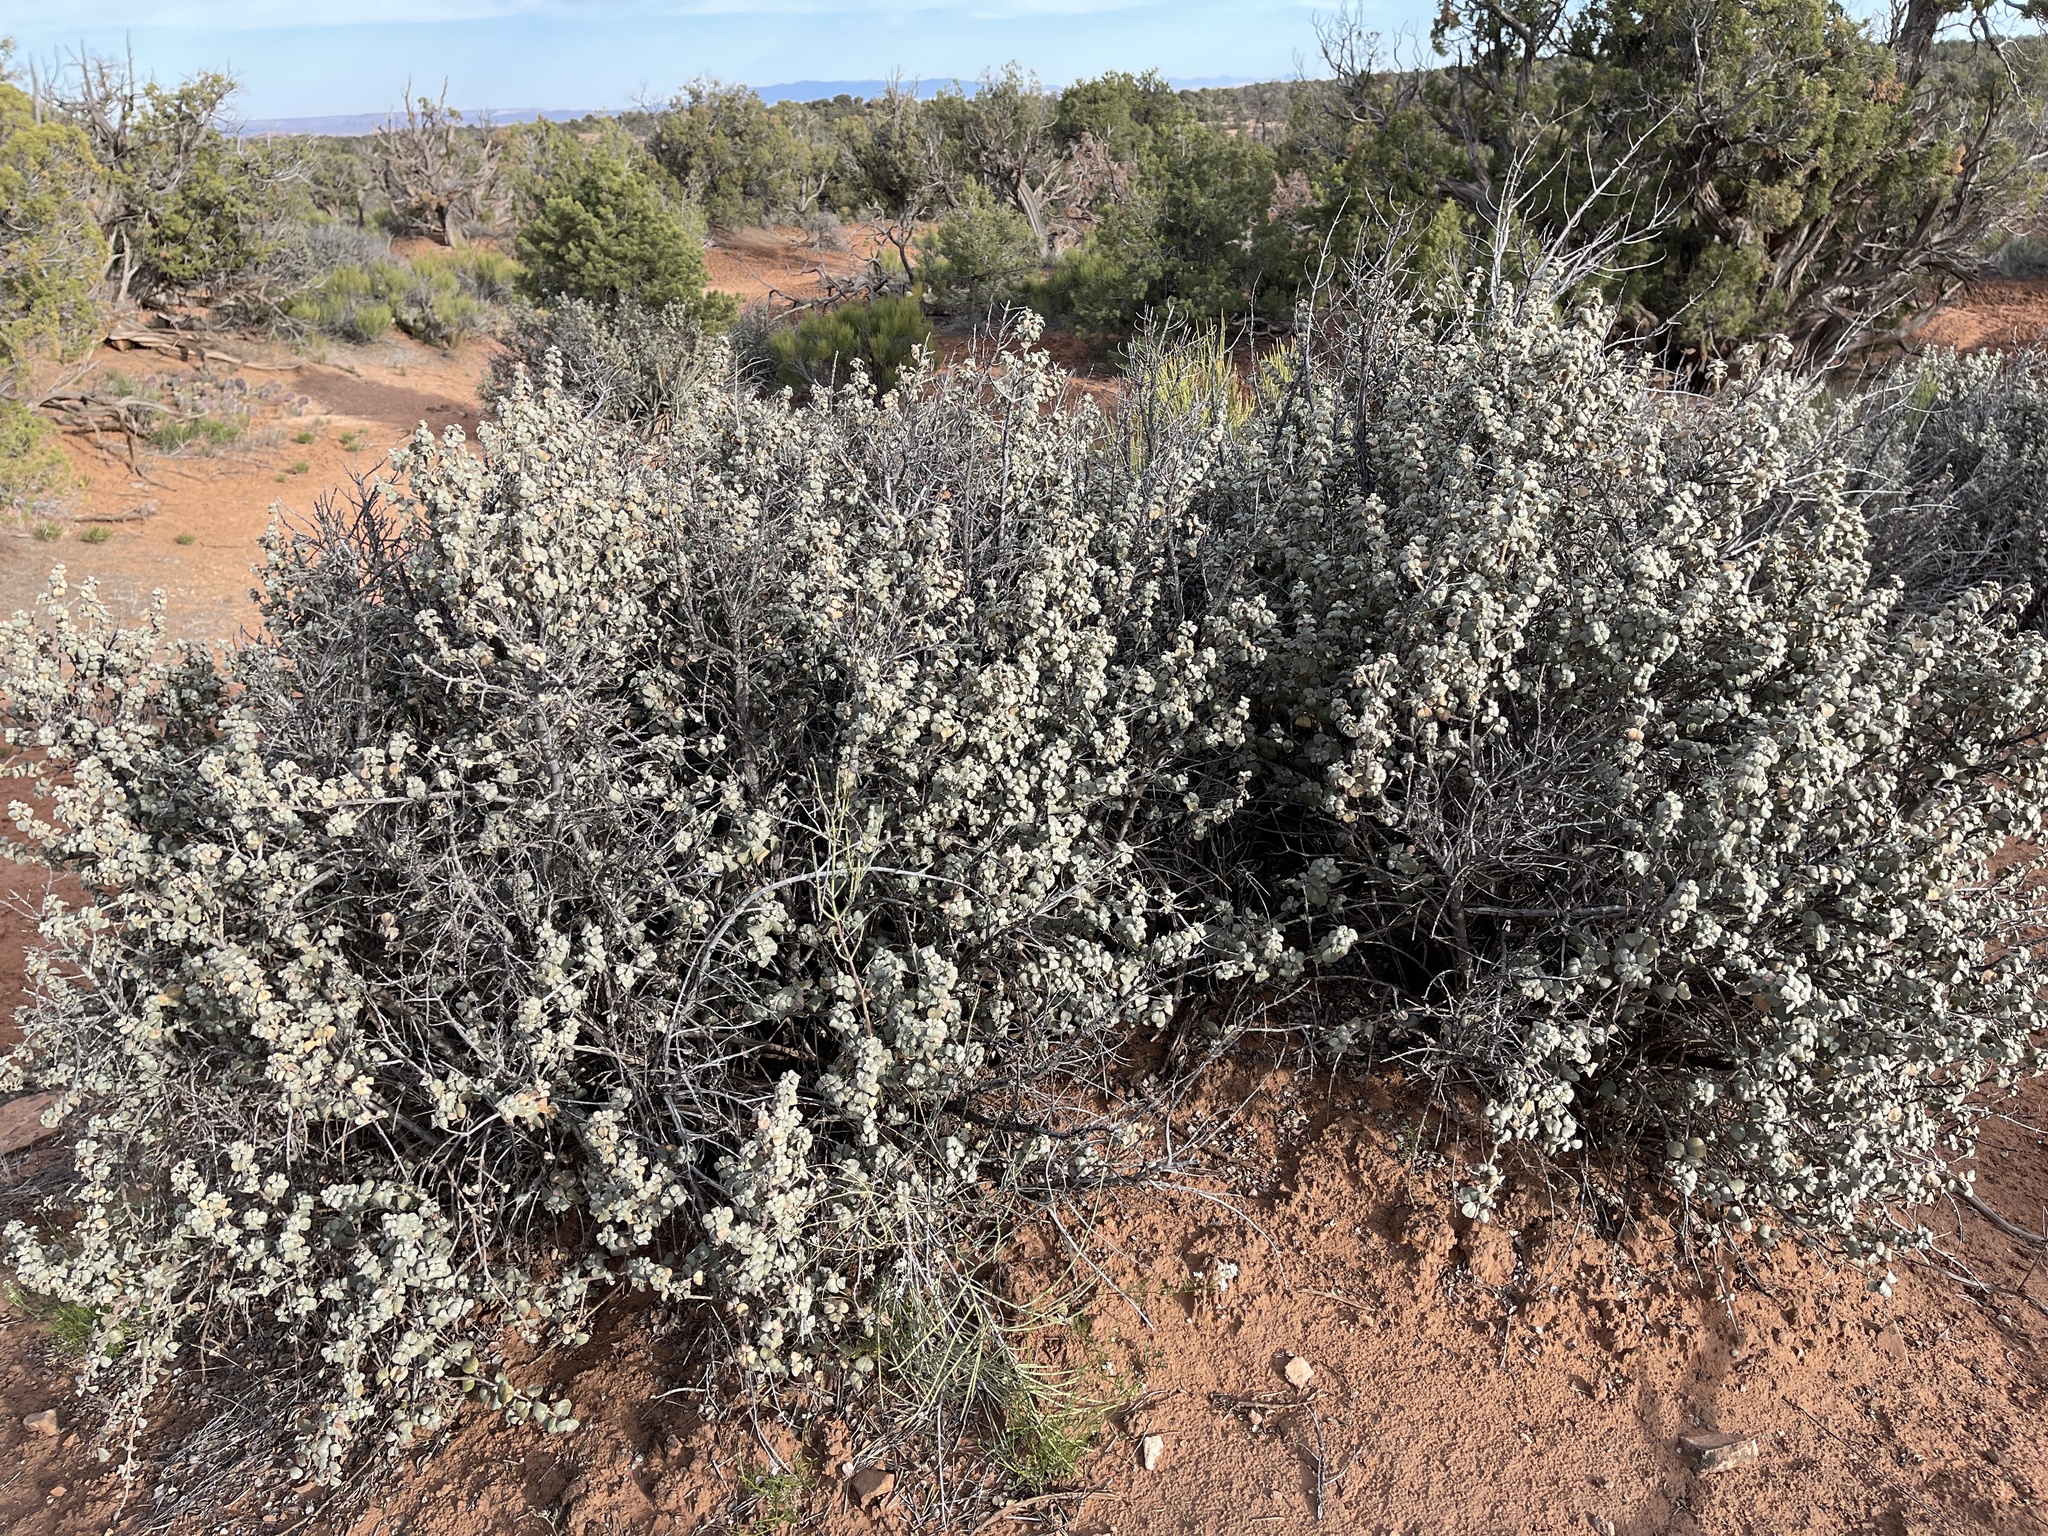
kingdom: Plantae
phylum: Tracheophyta
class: Magnoliopsida
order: Rosales
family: Elaeagnaceae
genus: Shepherdia
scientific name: Shepherdia rotundifolia
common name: Silverscale
